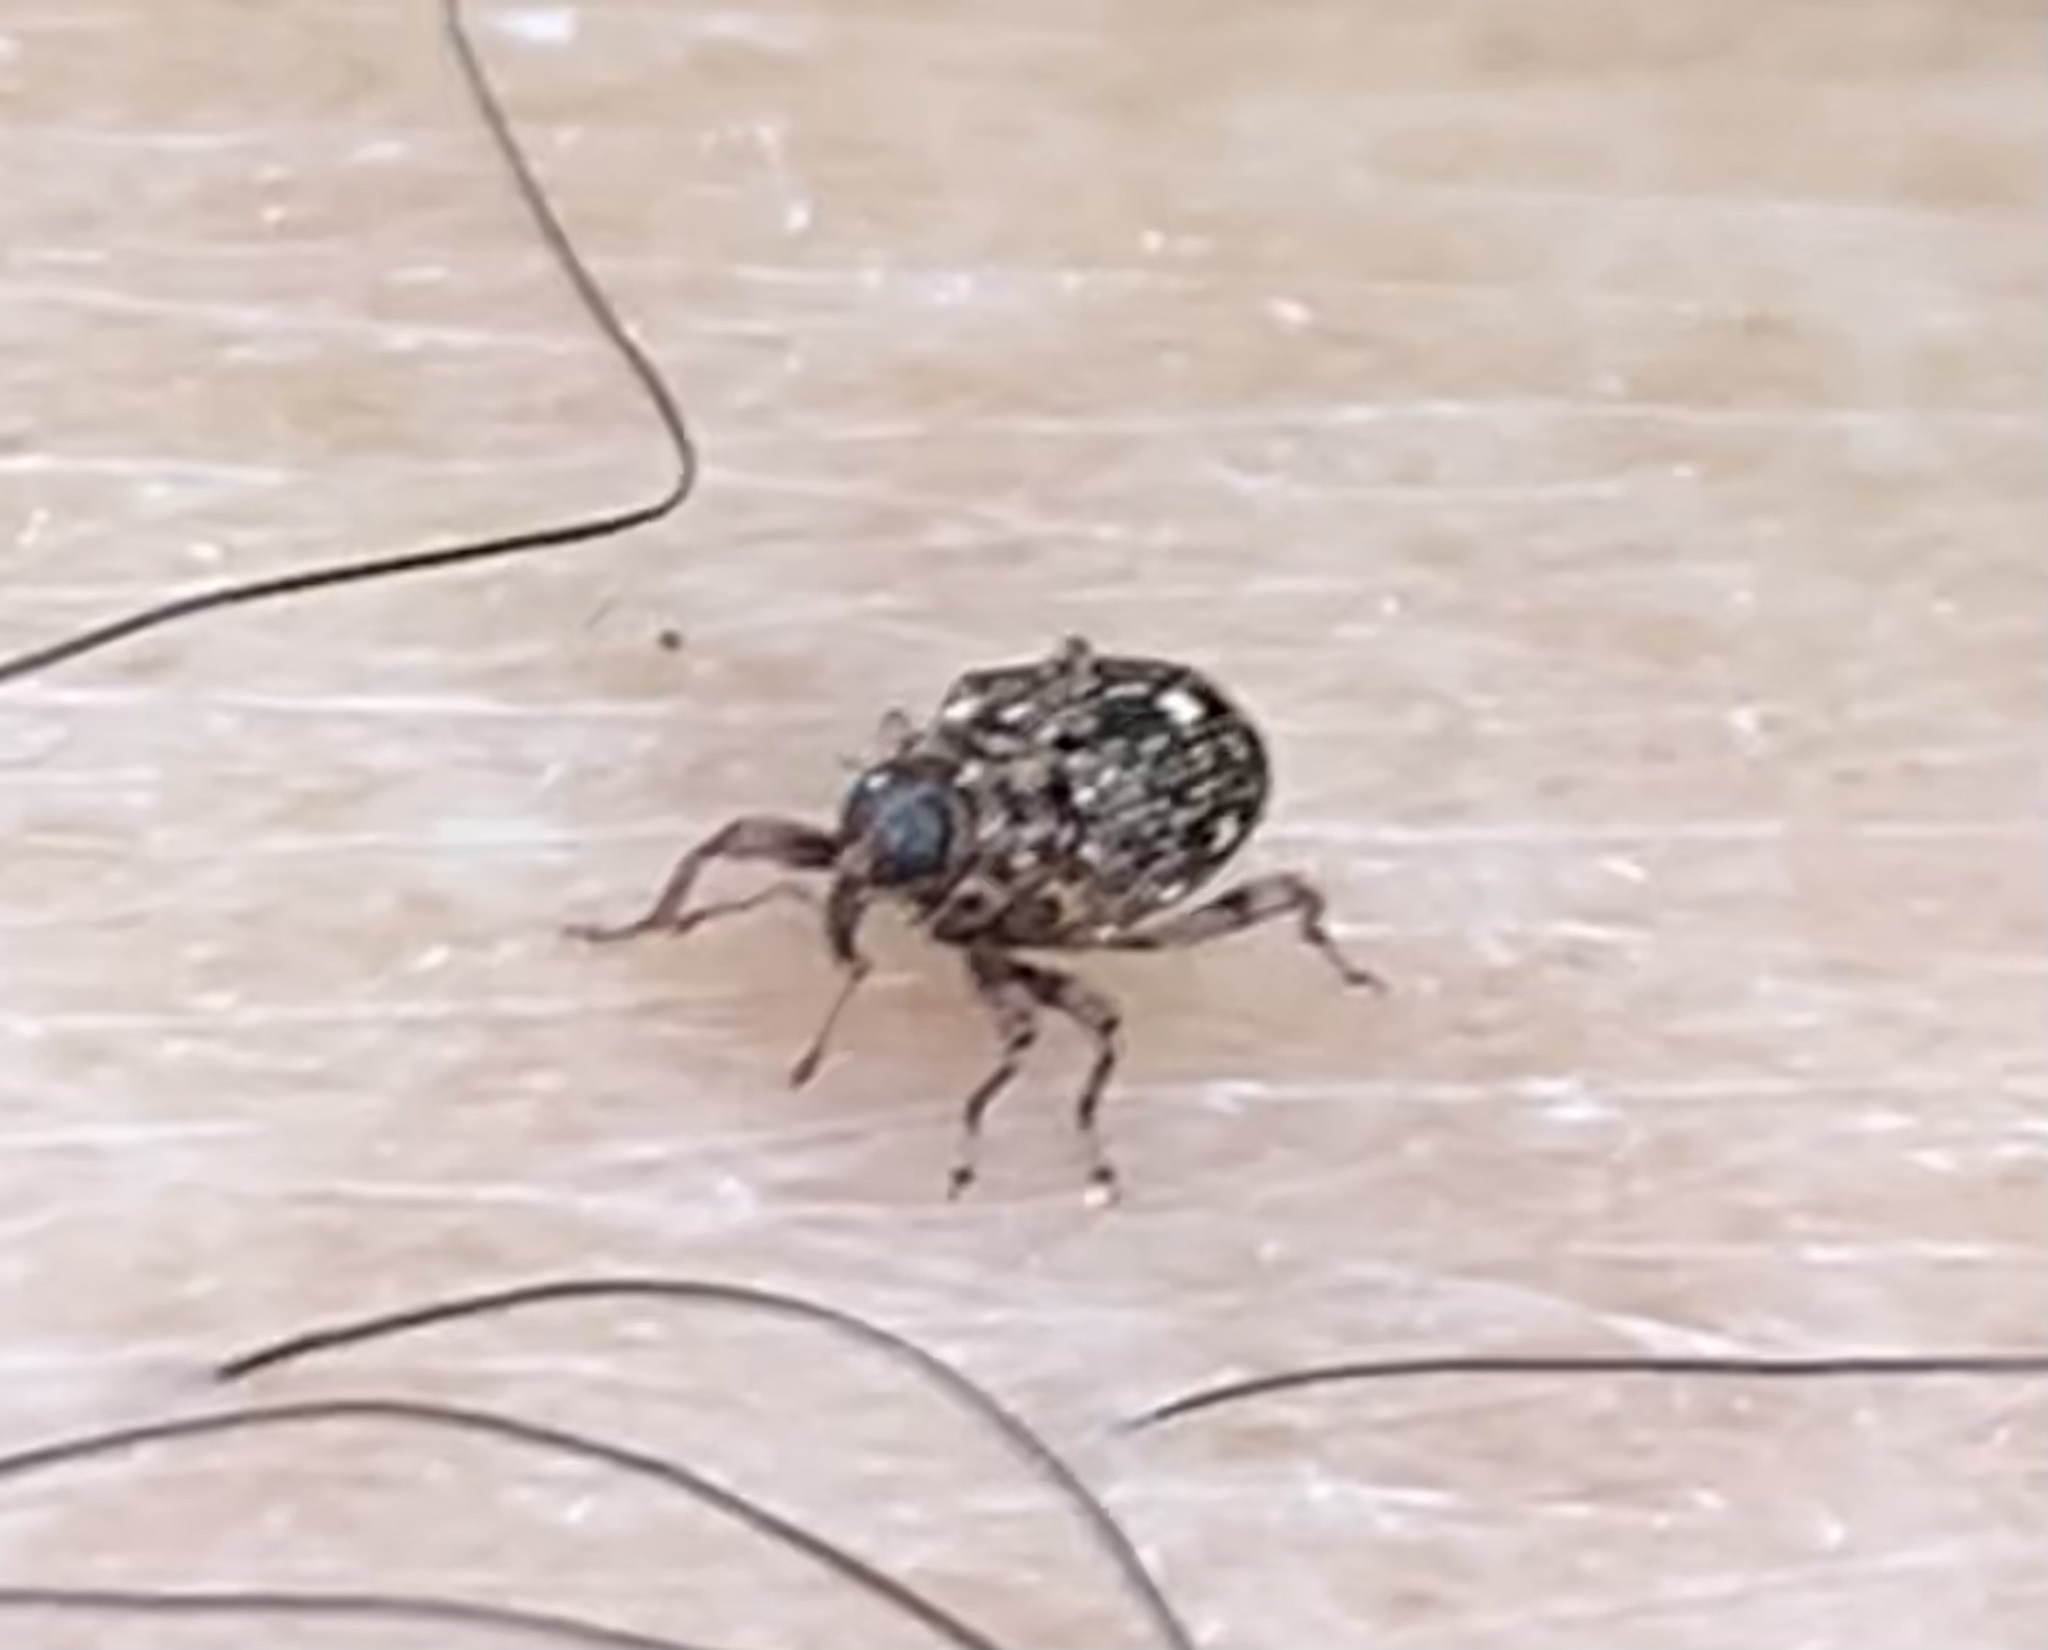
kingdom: Animalia
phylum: Arthropoda
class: Insecta
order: Coleoptera
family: Curculionidae
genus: Lechriops
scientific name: Lechriops oculatus
